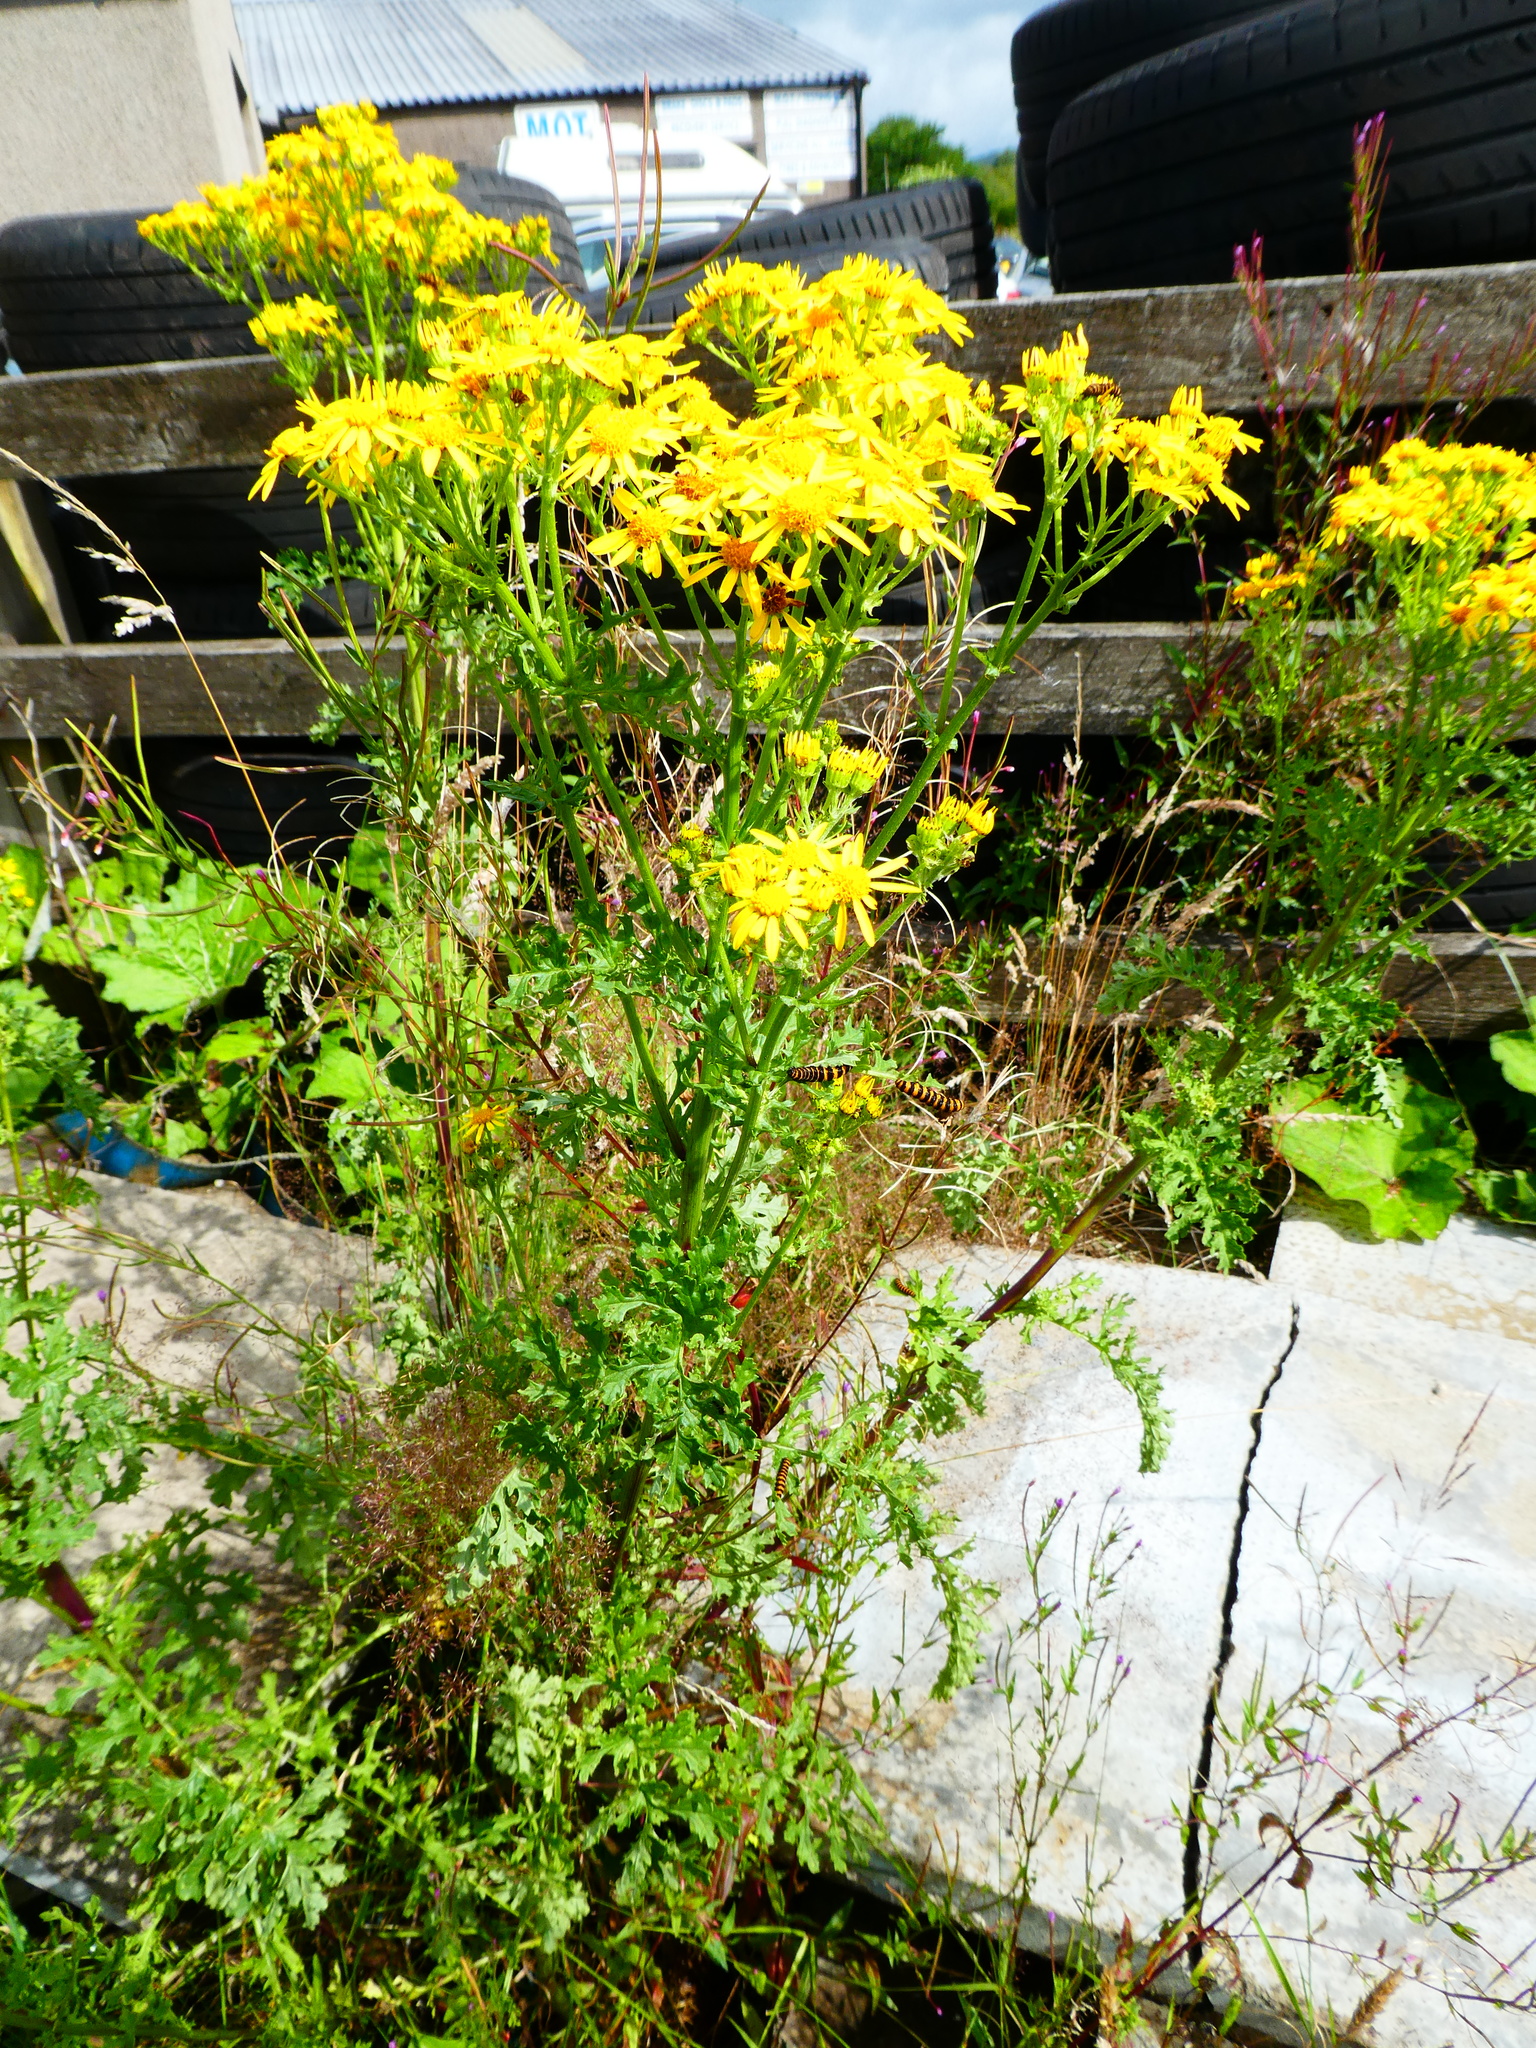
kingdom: Plantae
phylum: Tracheophyta
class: Magnoliopsida
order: Asterales
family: Asteraceae
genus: Jacobaea
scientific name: Jacobaea vulgaris
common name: Stinking willie
